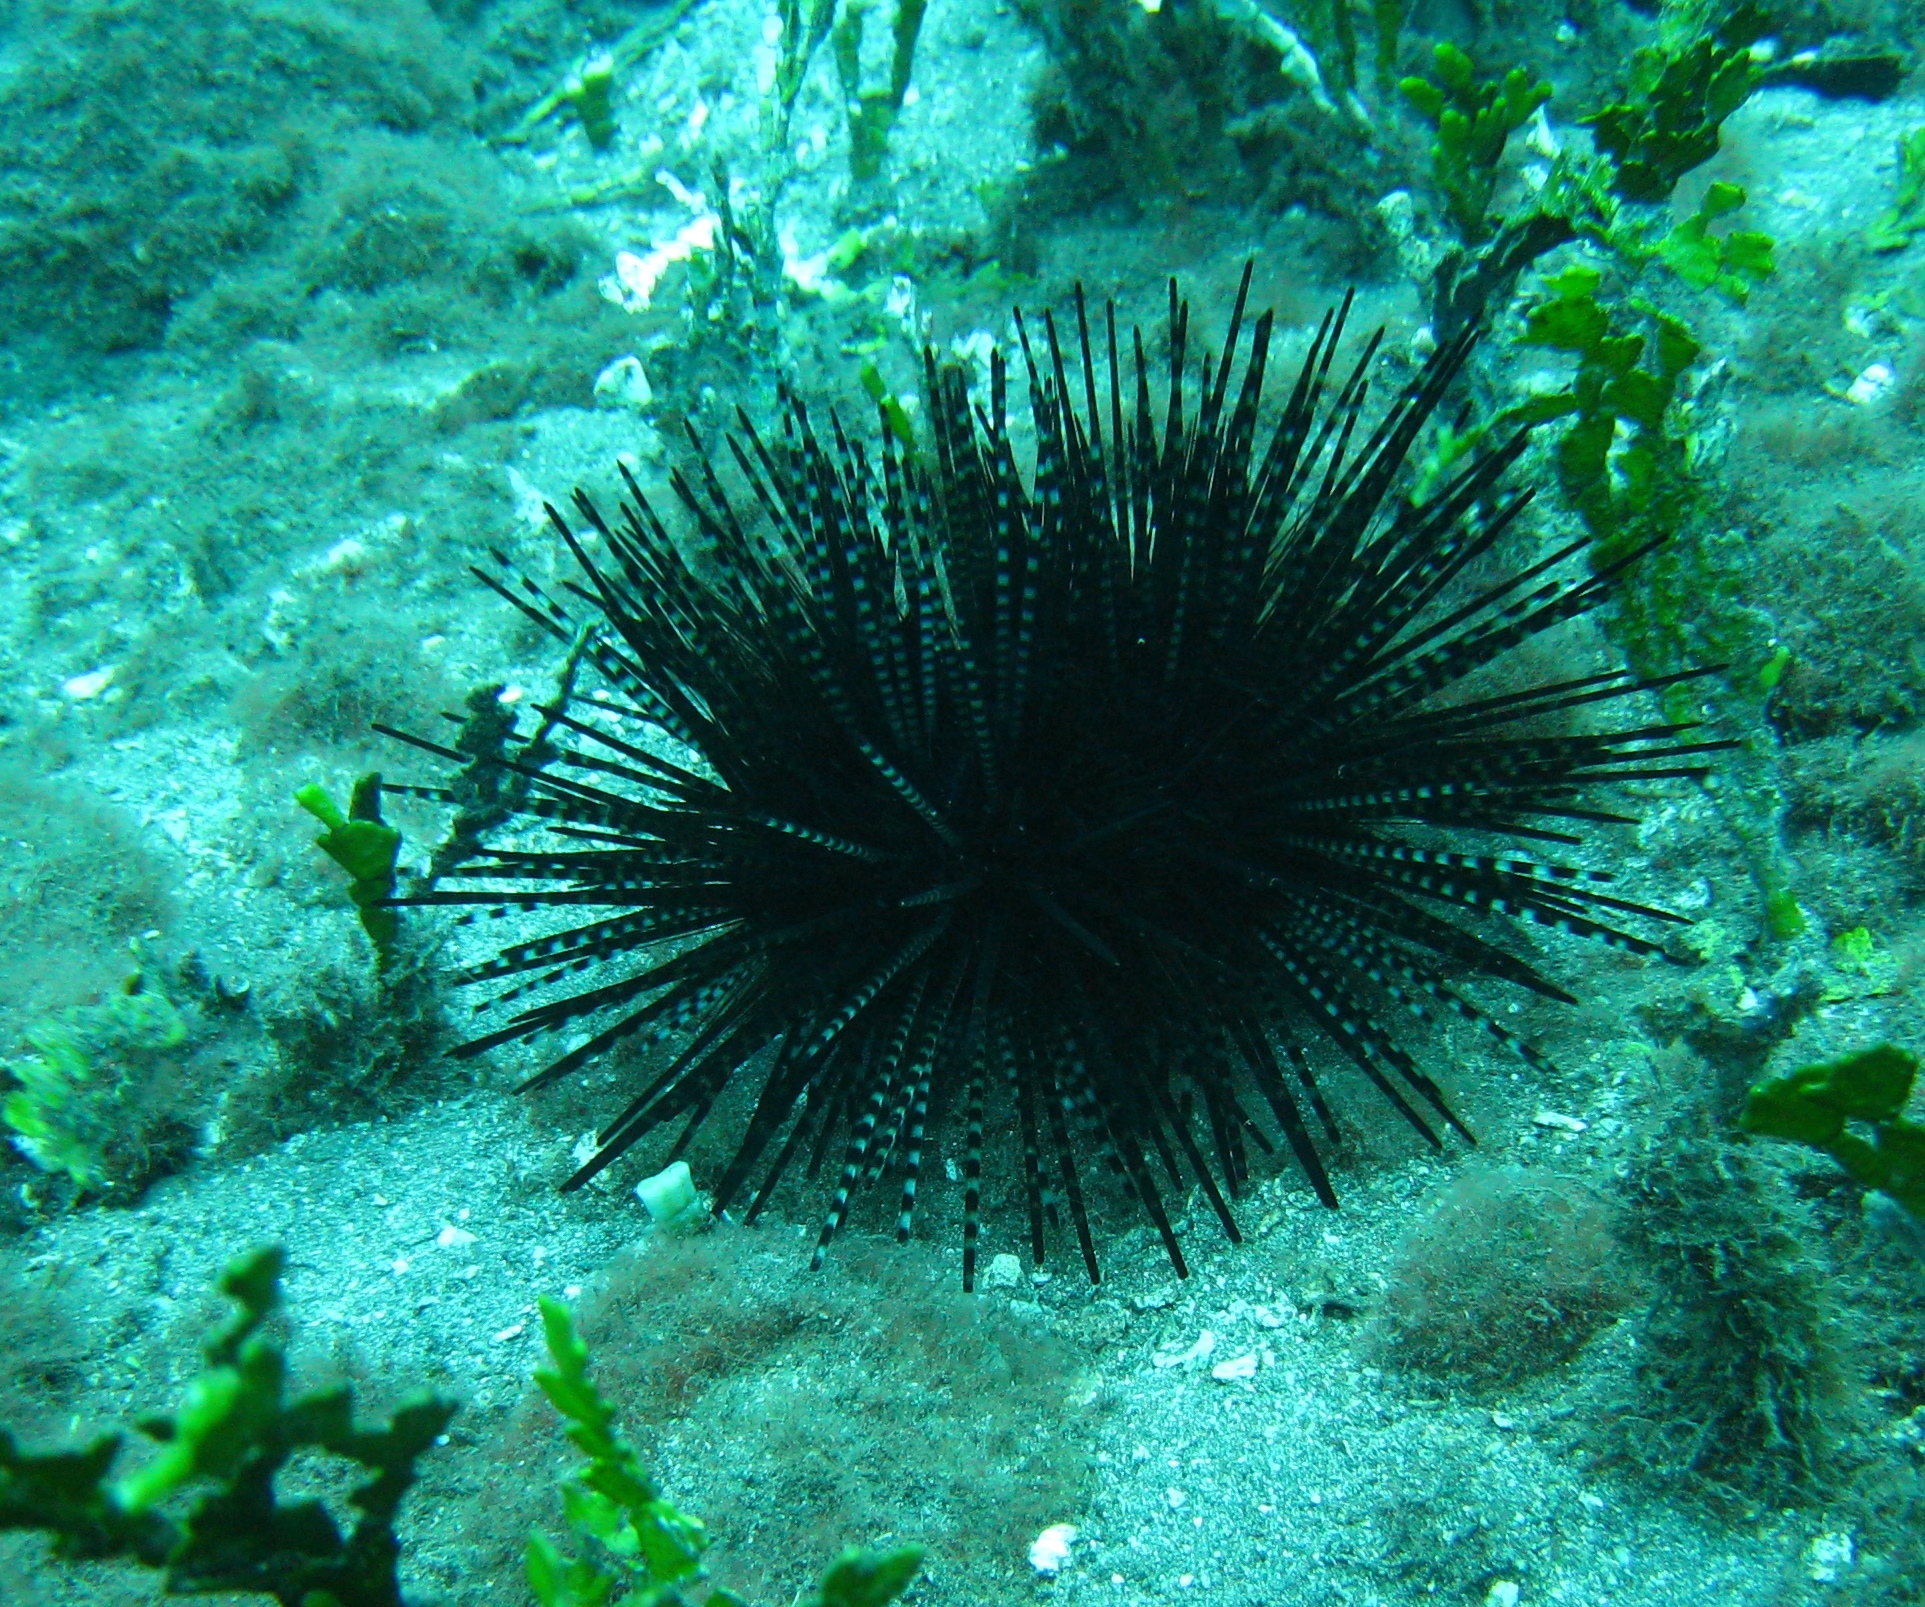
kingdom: Animalia
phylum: Echinodermata
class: Echinoidea
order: Diadematoida
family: Diadematidae
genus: Echinothrix
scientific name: Echinothrix calamaris
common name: Banded sea urchin
